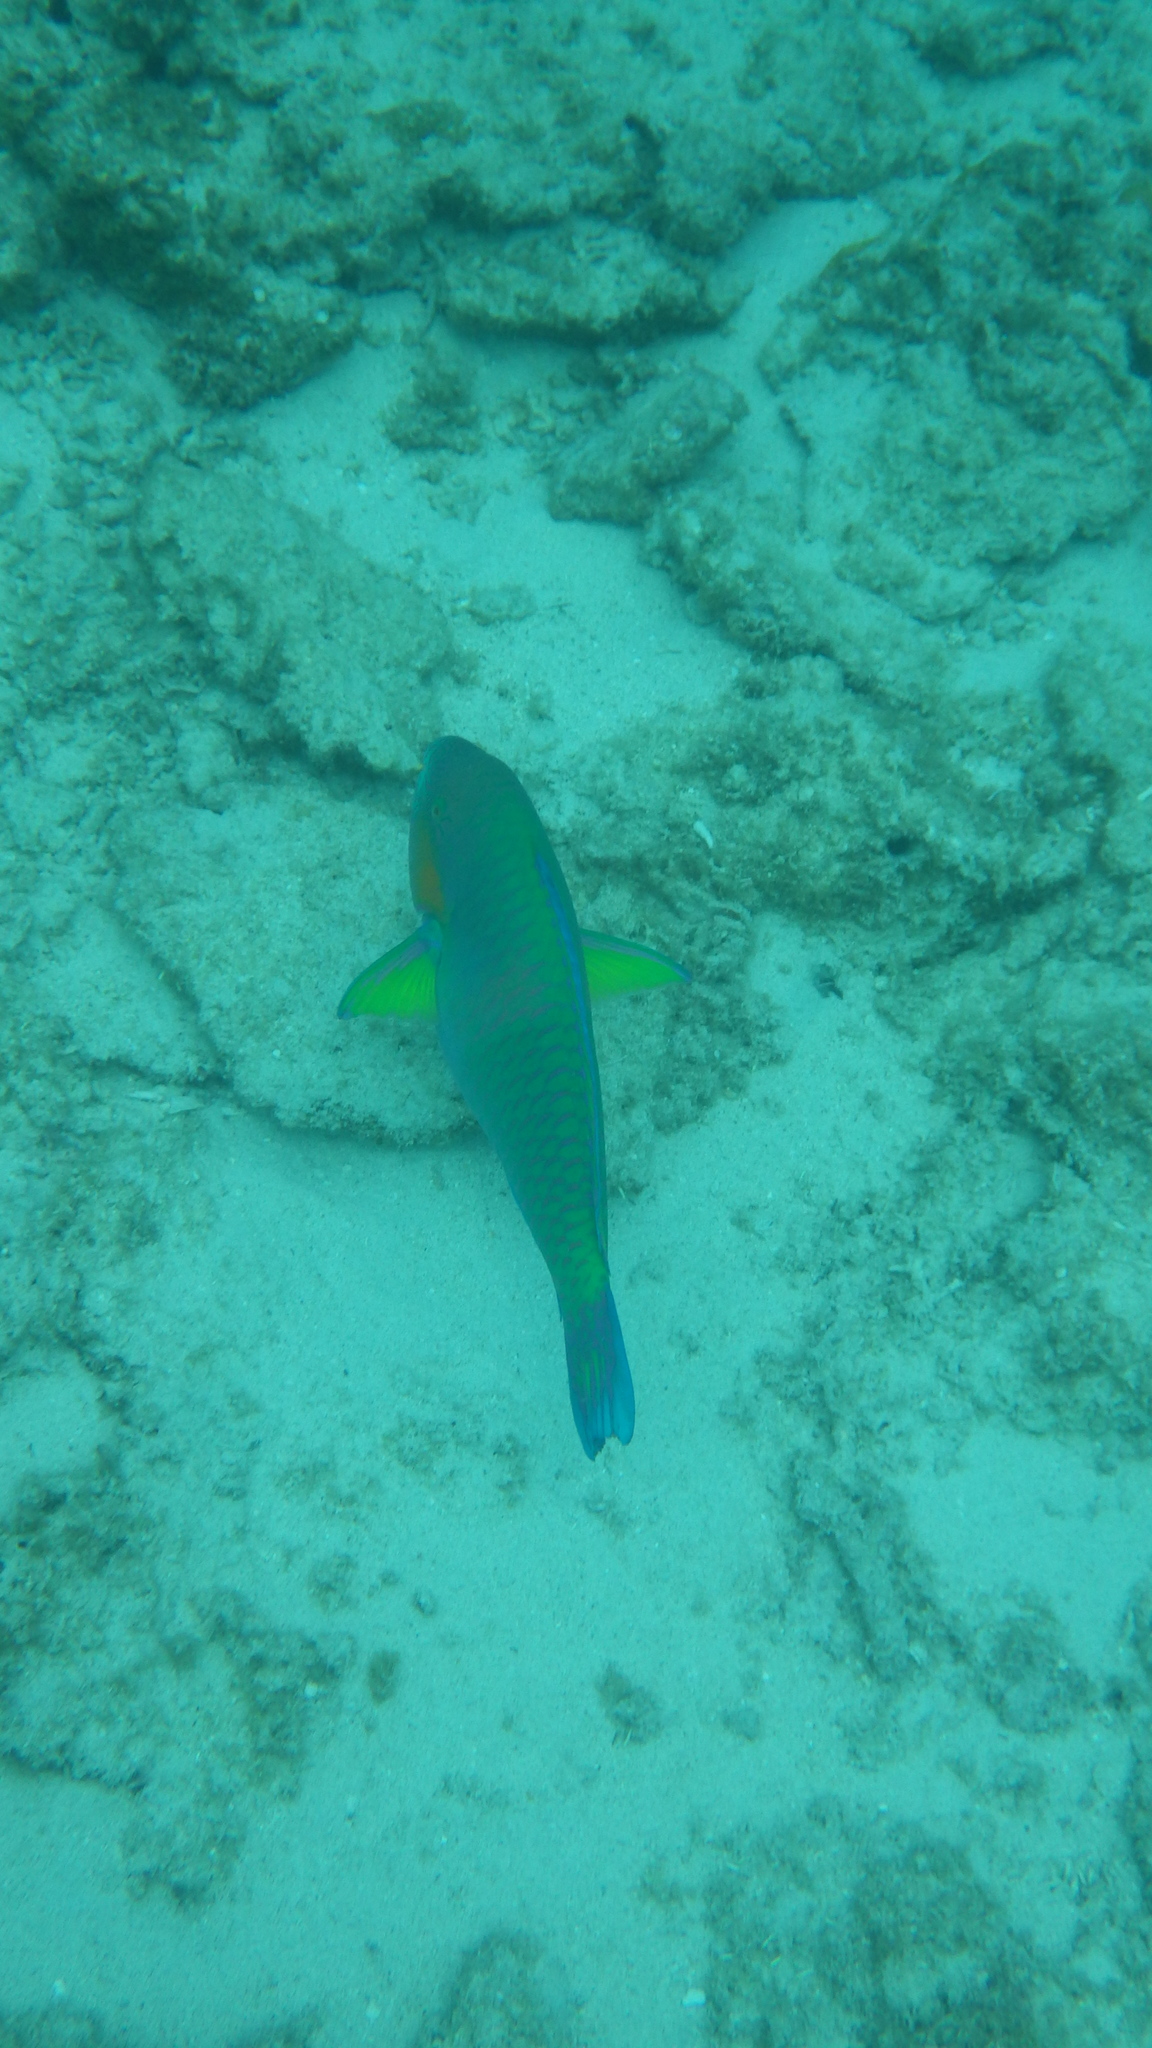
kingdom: Animalia
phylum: Chordata
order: Perciformes
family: Scaridae
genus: Scarus
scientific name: Scarus rivulatus
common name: Surf parrotfish
